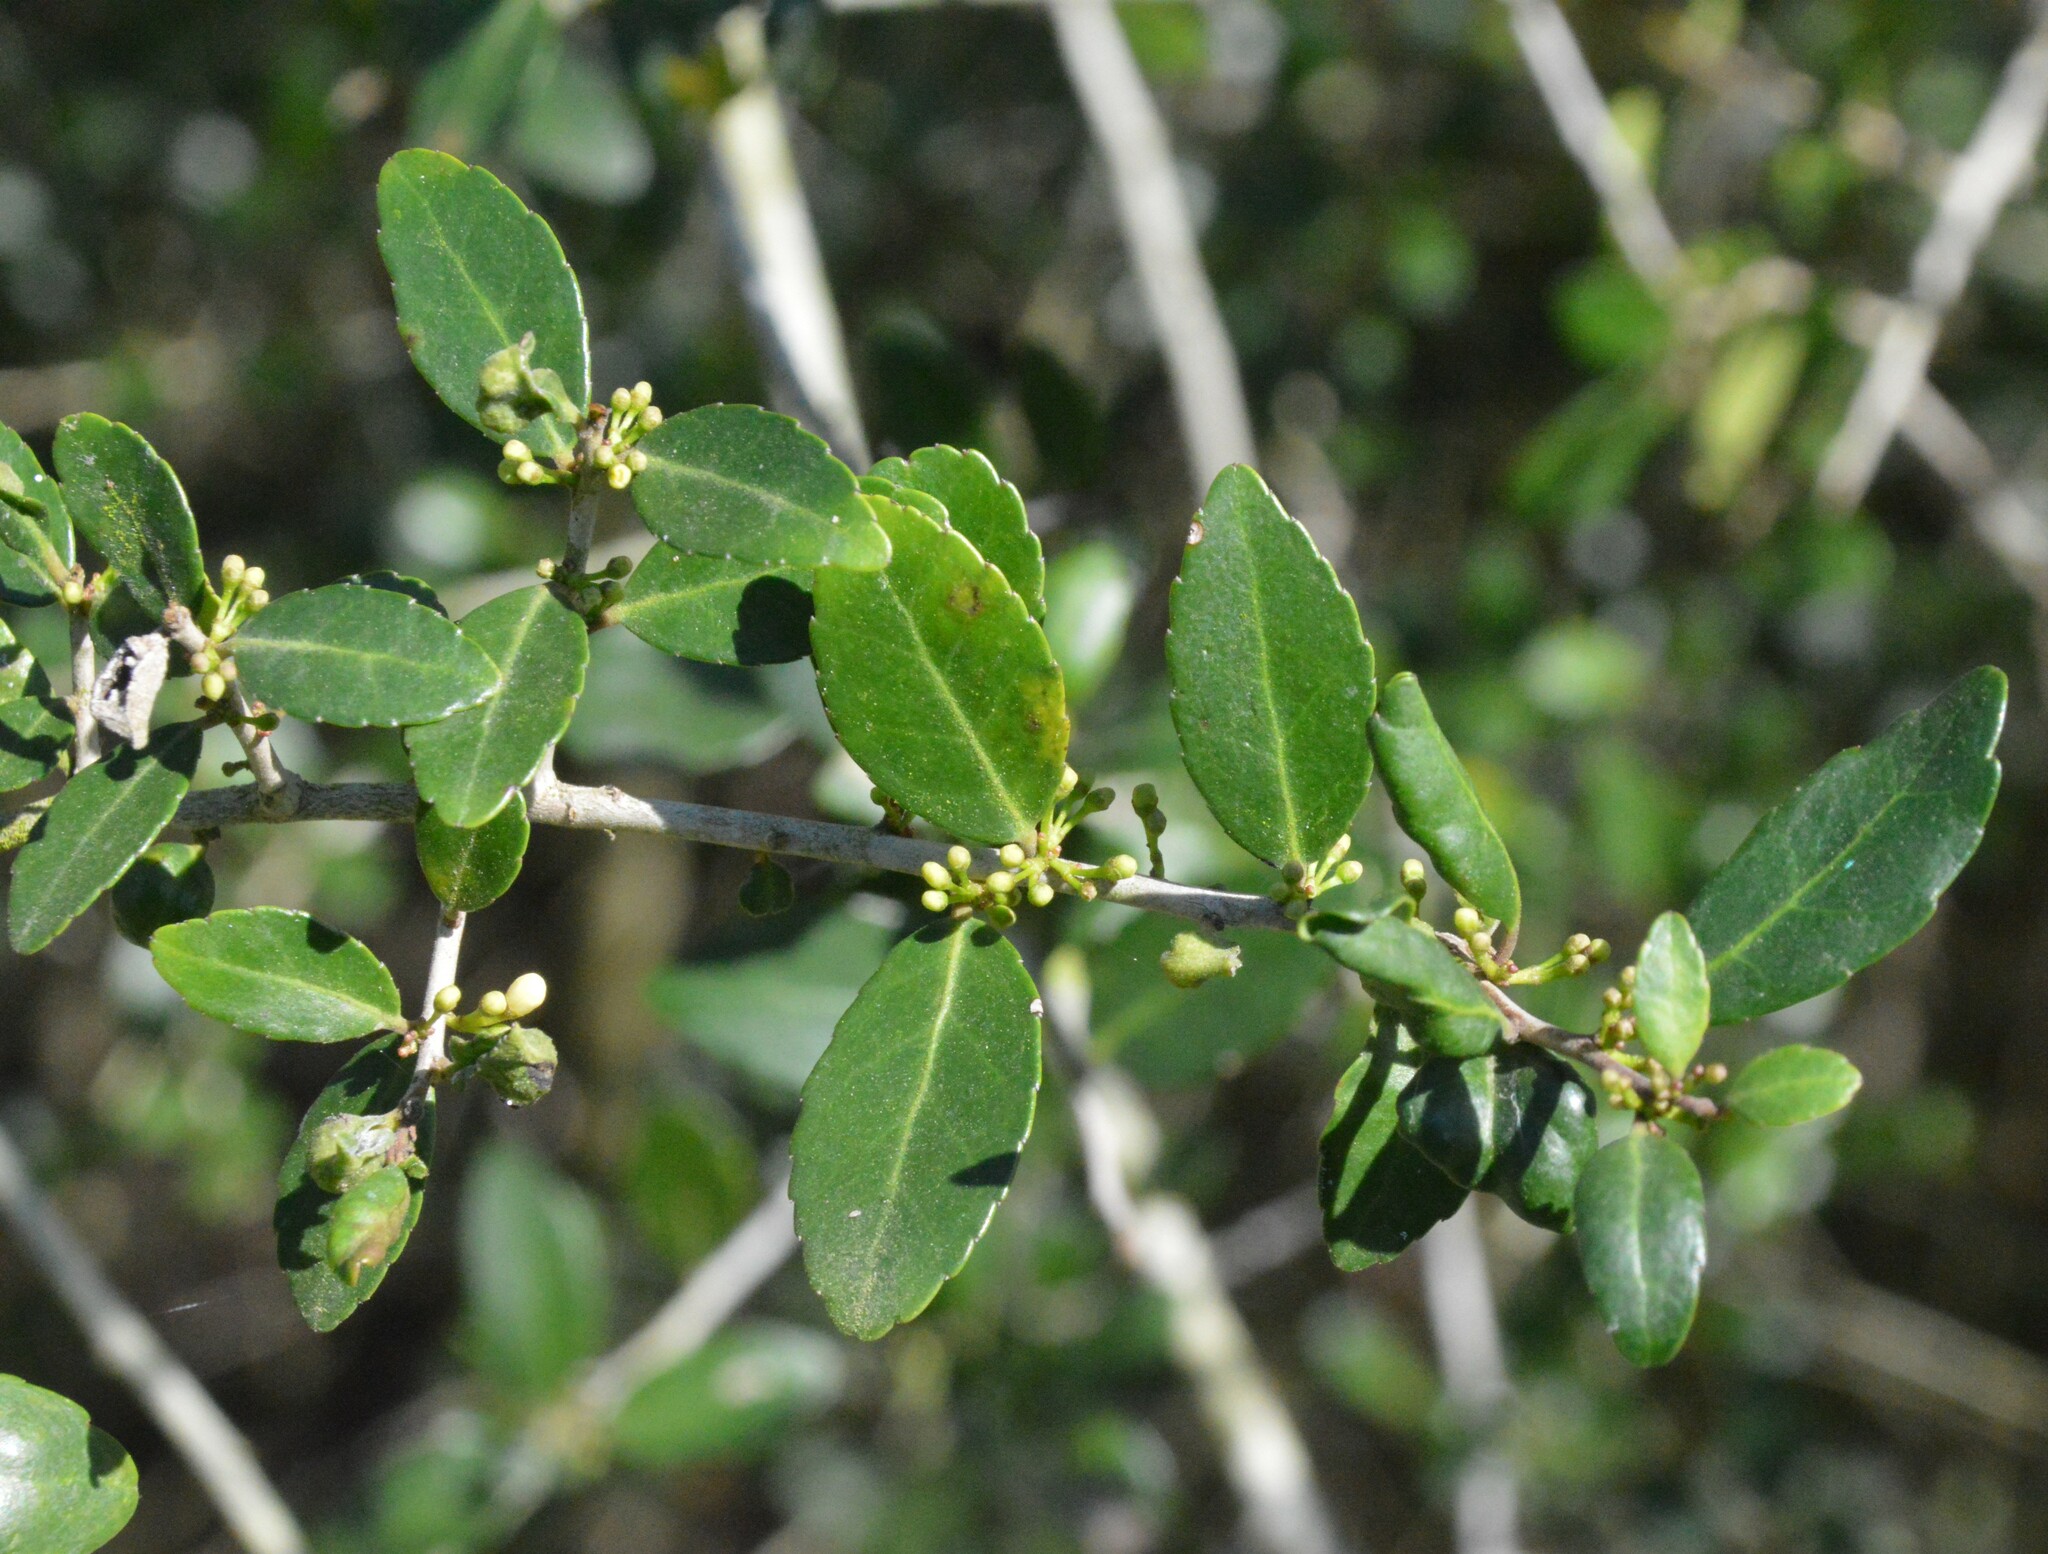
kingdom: Plantae
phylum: Tracheophyta
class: Magnoliopsida
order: Aquifoliales
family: Aquifoliaceae
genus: Ilex
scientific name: Ilex vomitoria
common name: Yaupon holly
